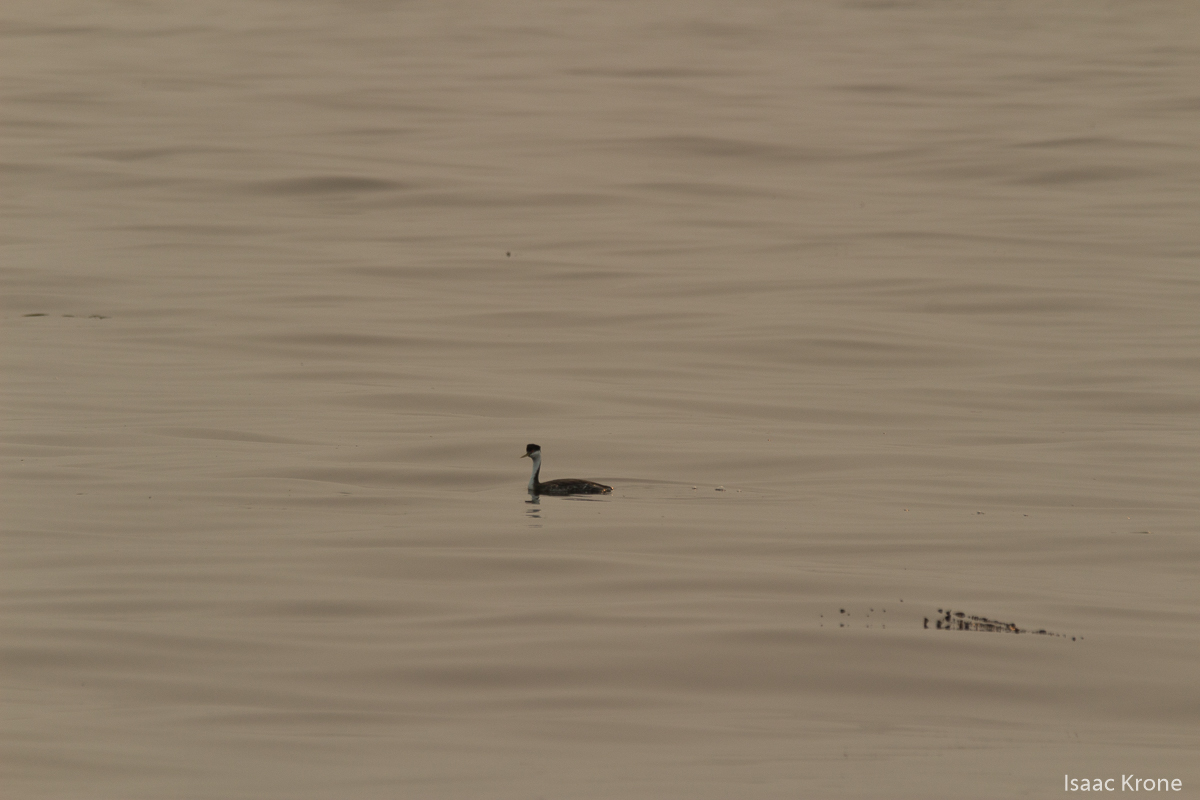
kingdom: Animalia
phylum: Chordata
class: Aves
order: Podicipediformes
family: Podicipedidae
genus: Aechmophorus
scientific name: Aechmophorus occidentalis
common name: Western grebe
